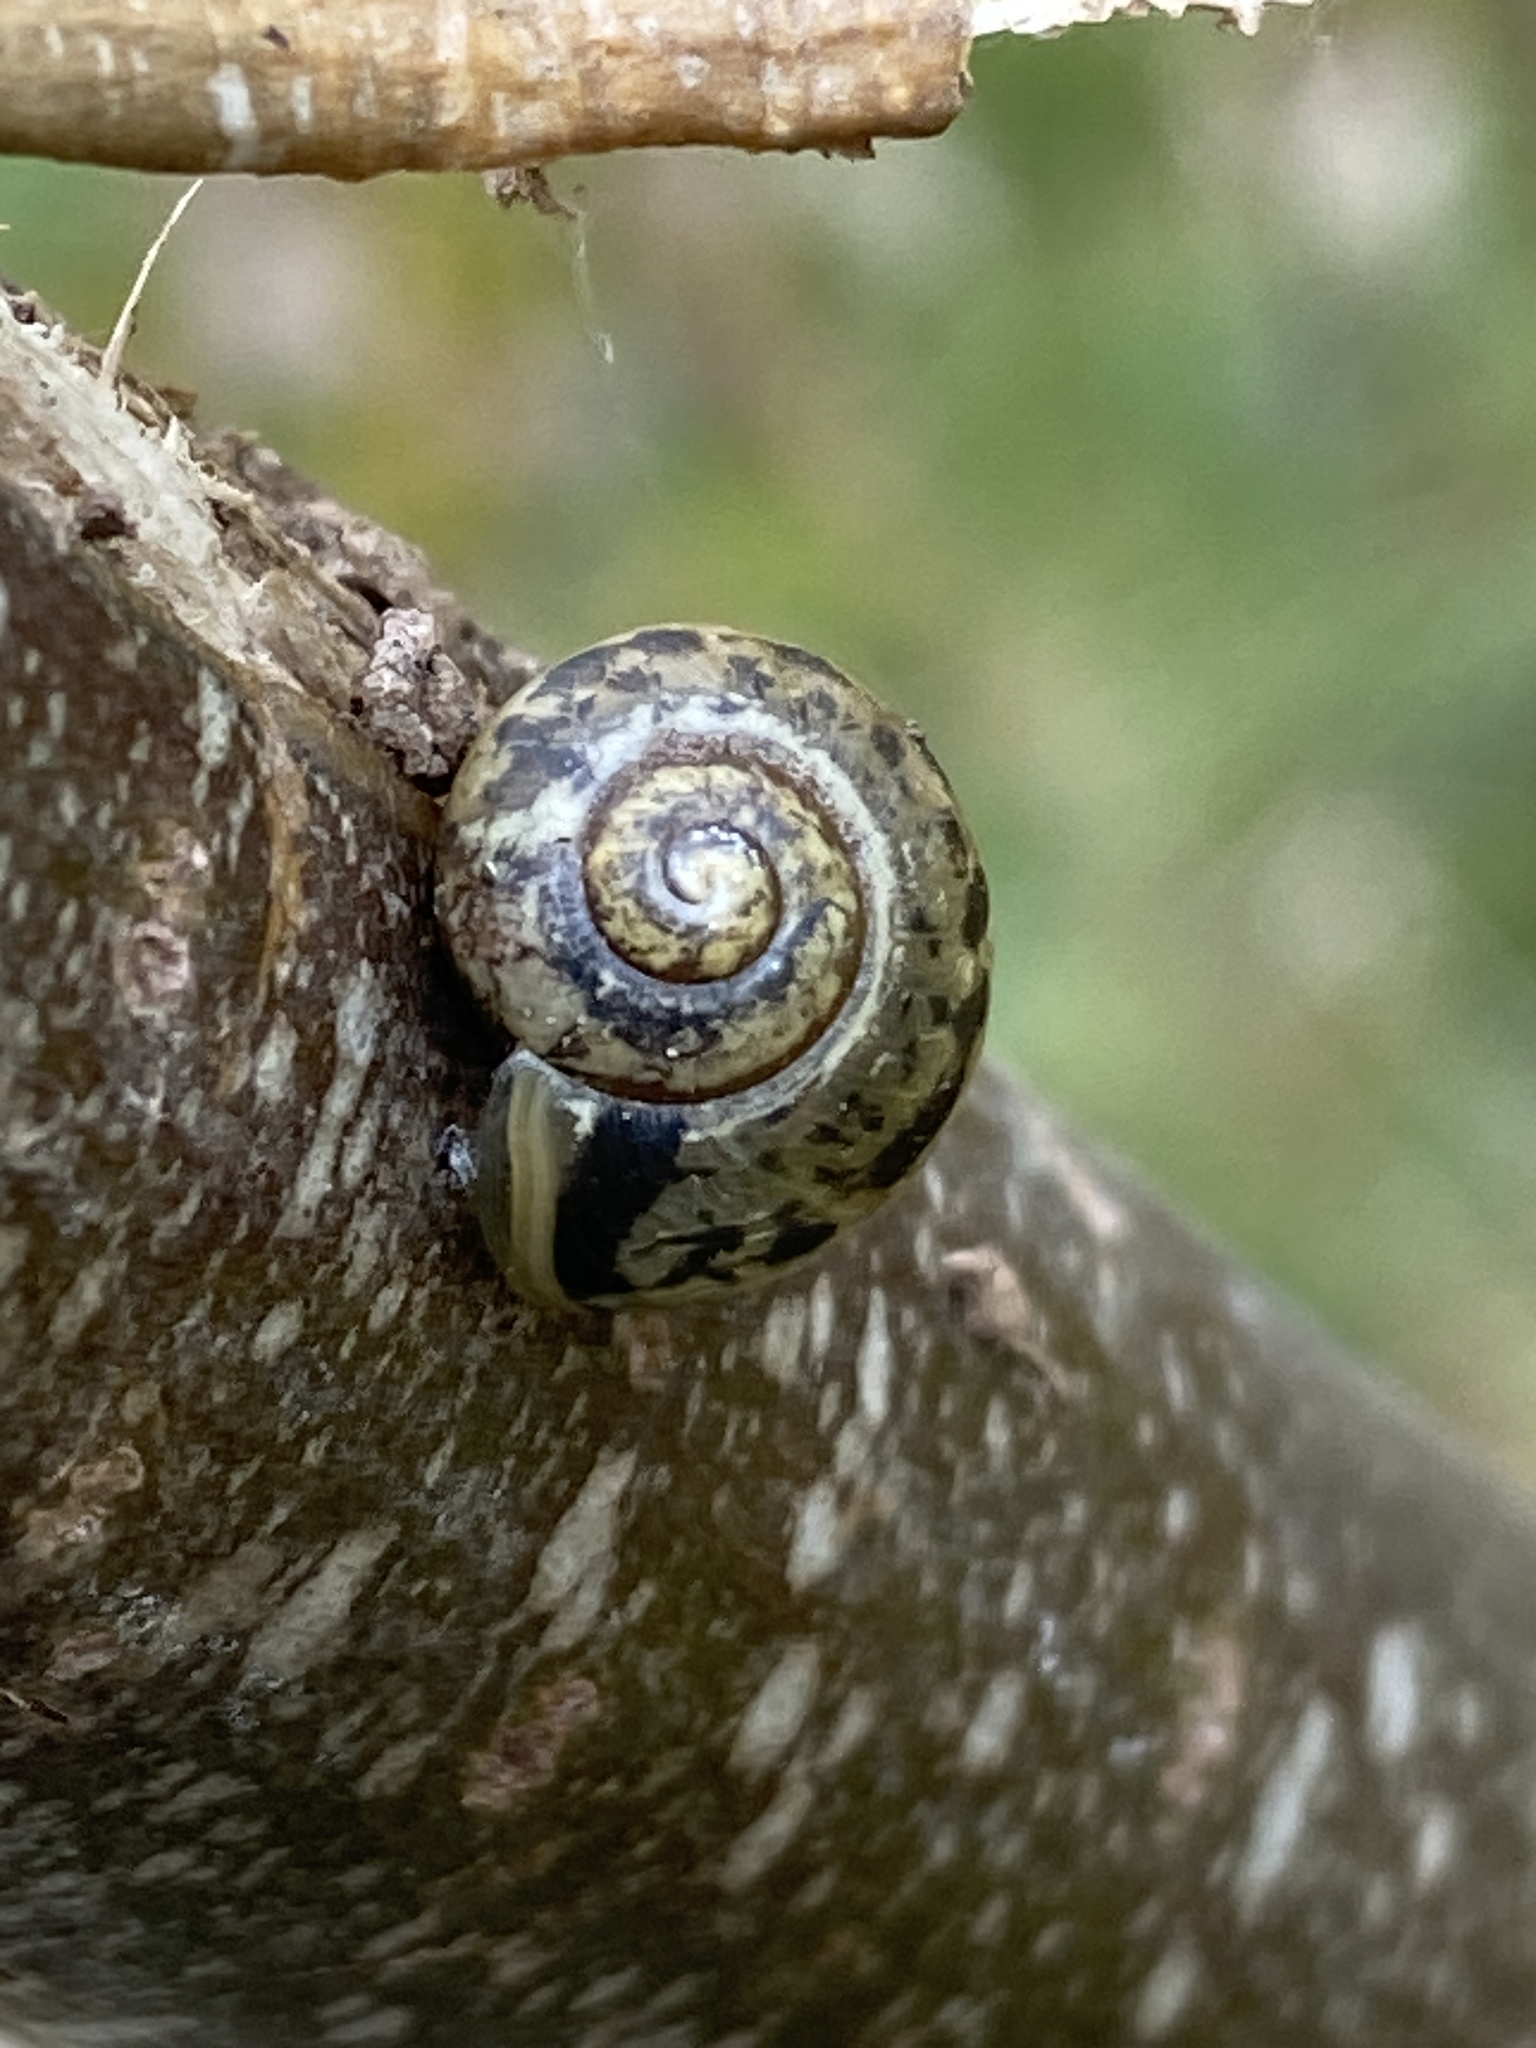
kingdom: Animalia
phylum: Mollusca
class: Gastropoda
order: Stylommatophora
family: Camaenidae
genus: Fruticicola
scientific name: Fruticicola fruticum
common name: Bush snail
